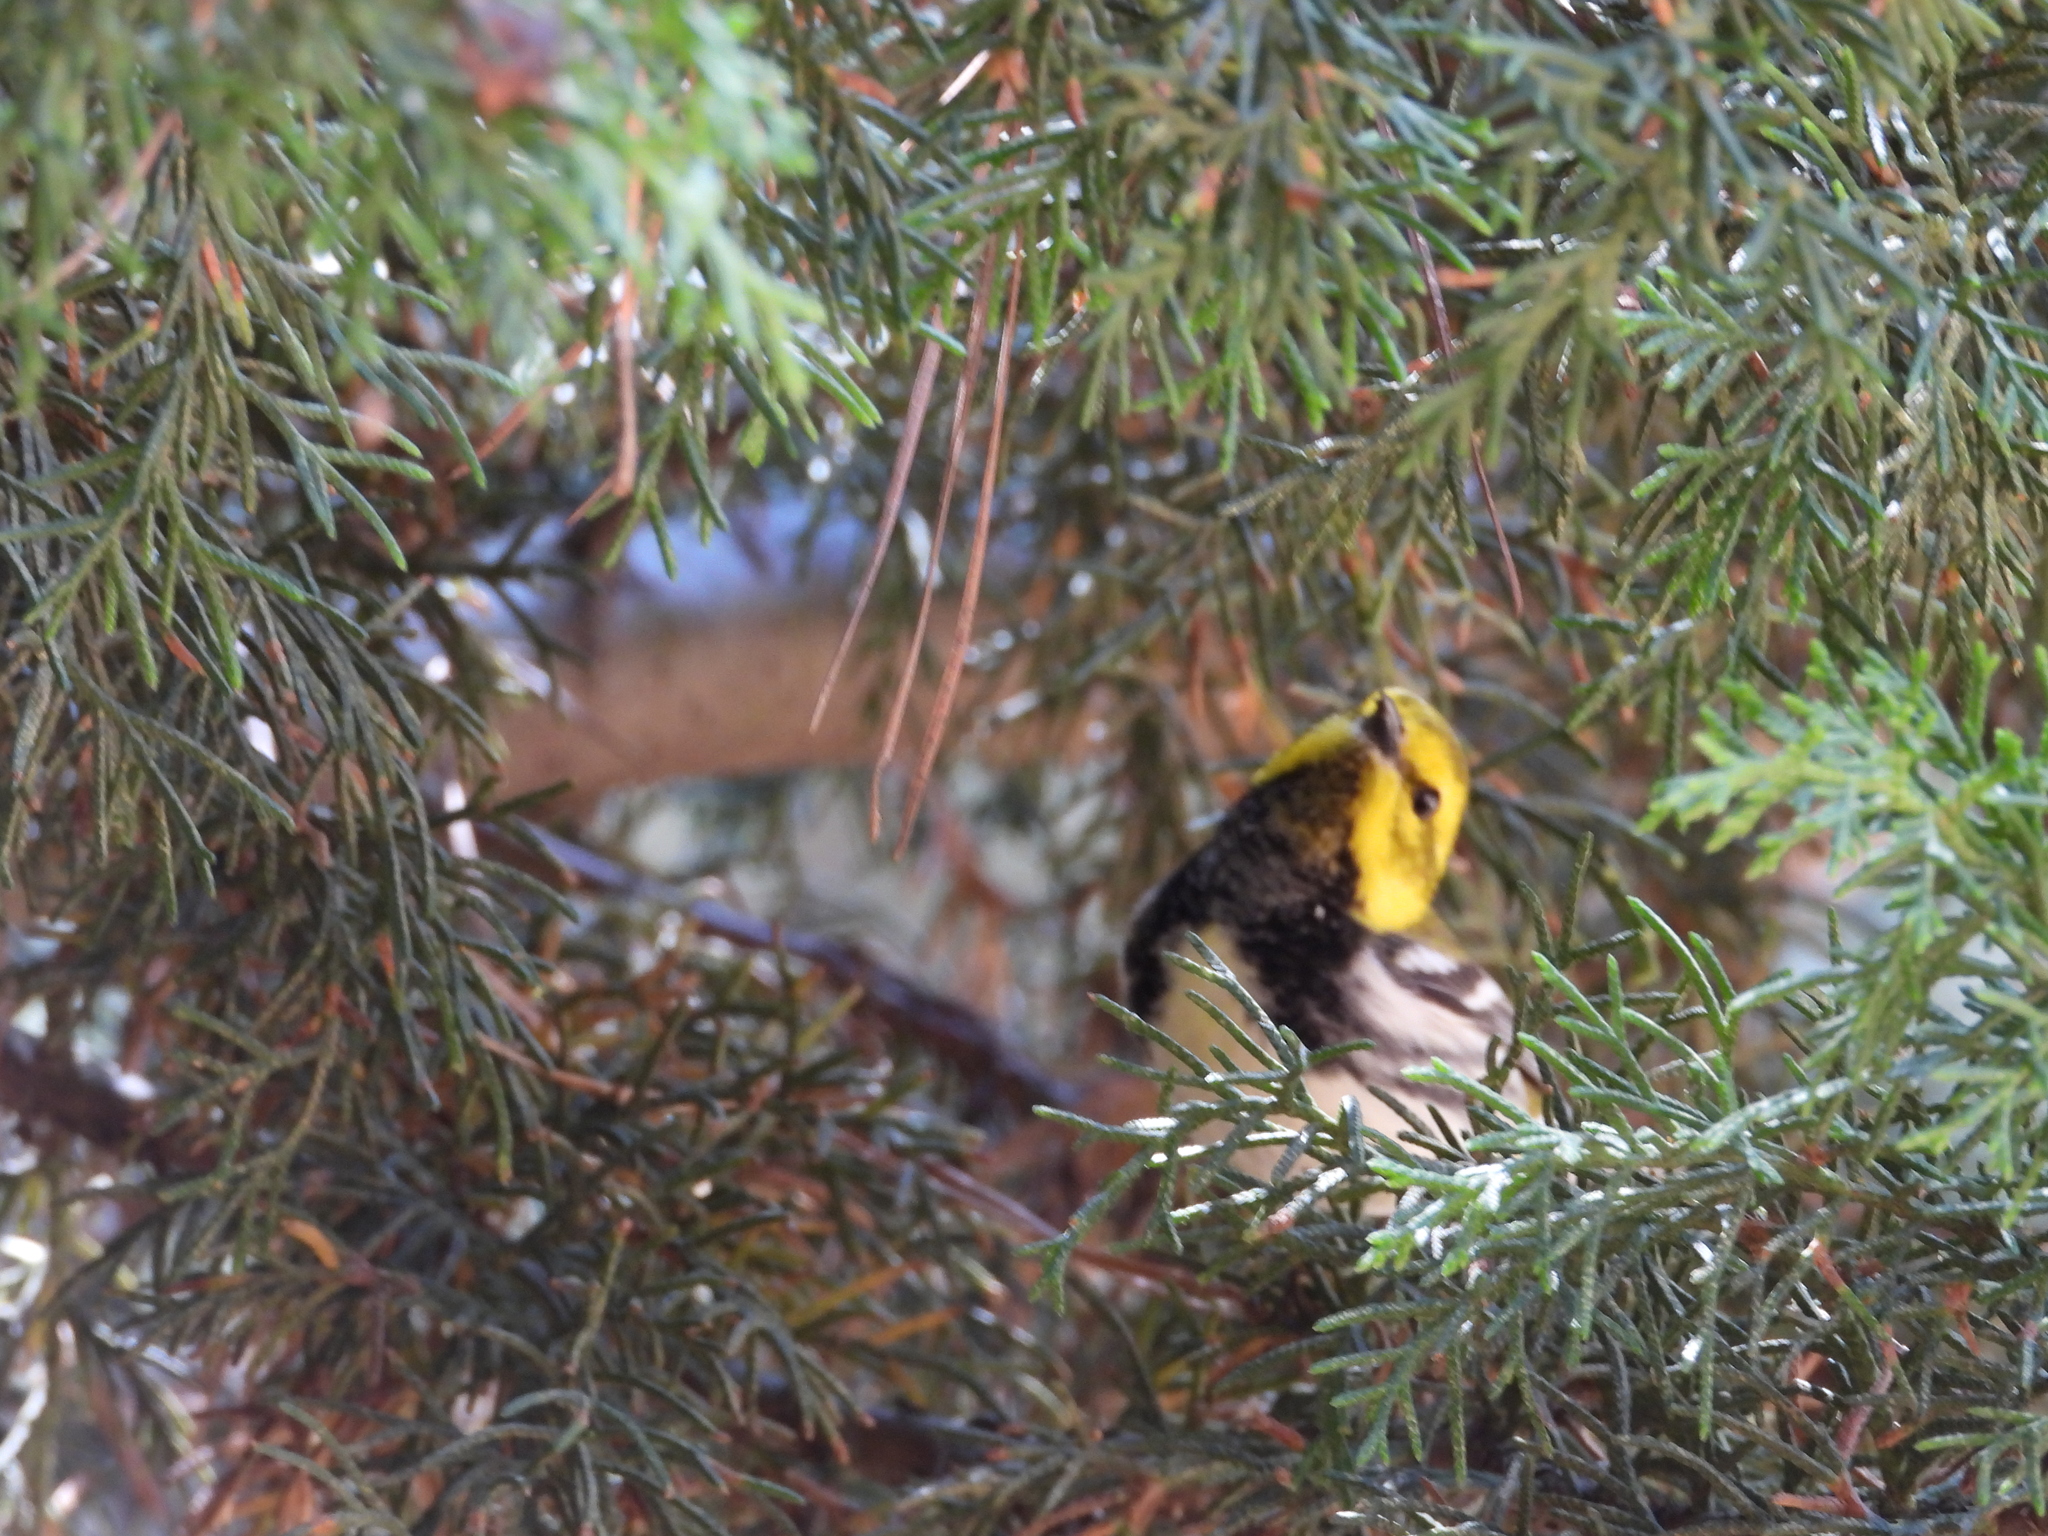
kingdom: Animalia
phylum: Chordata
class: Aves
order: Passeriformes
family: Parulidae
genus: Setophaga
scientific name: Setophaga virens
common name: Black-throated green warbler
